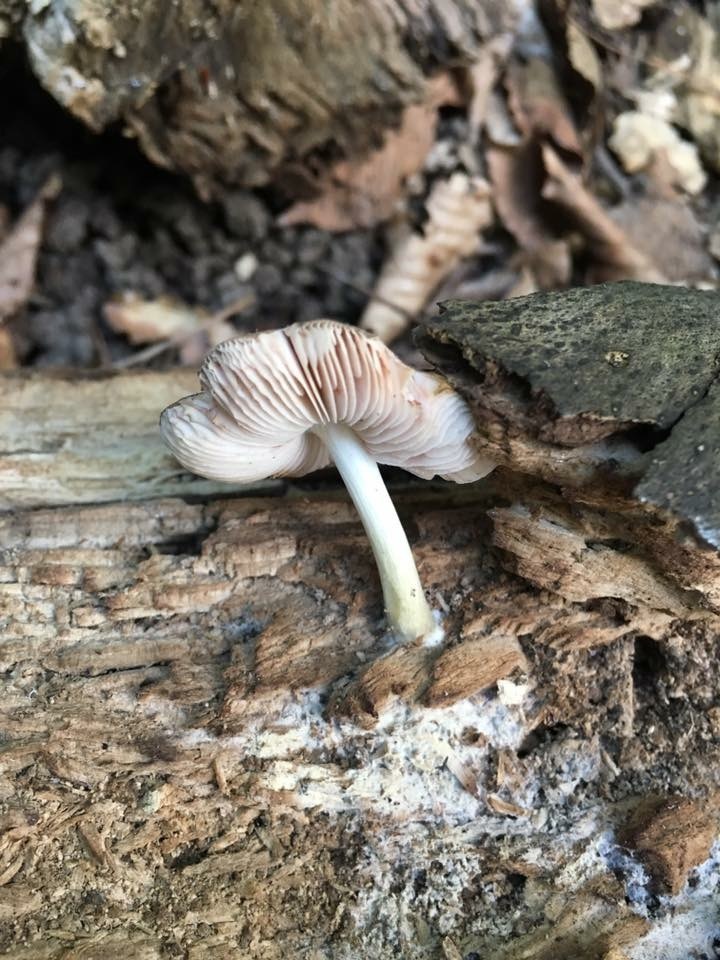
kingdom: Fungi
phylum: Basidiomycota
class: Agaricomycetes
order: Agaricales
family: Pluteaceae
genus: Pluteus
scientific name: Pluteus americanus
